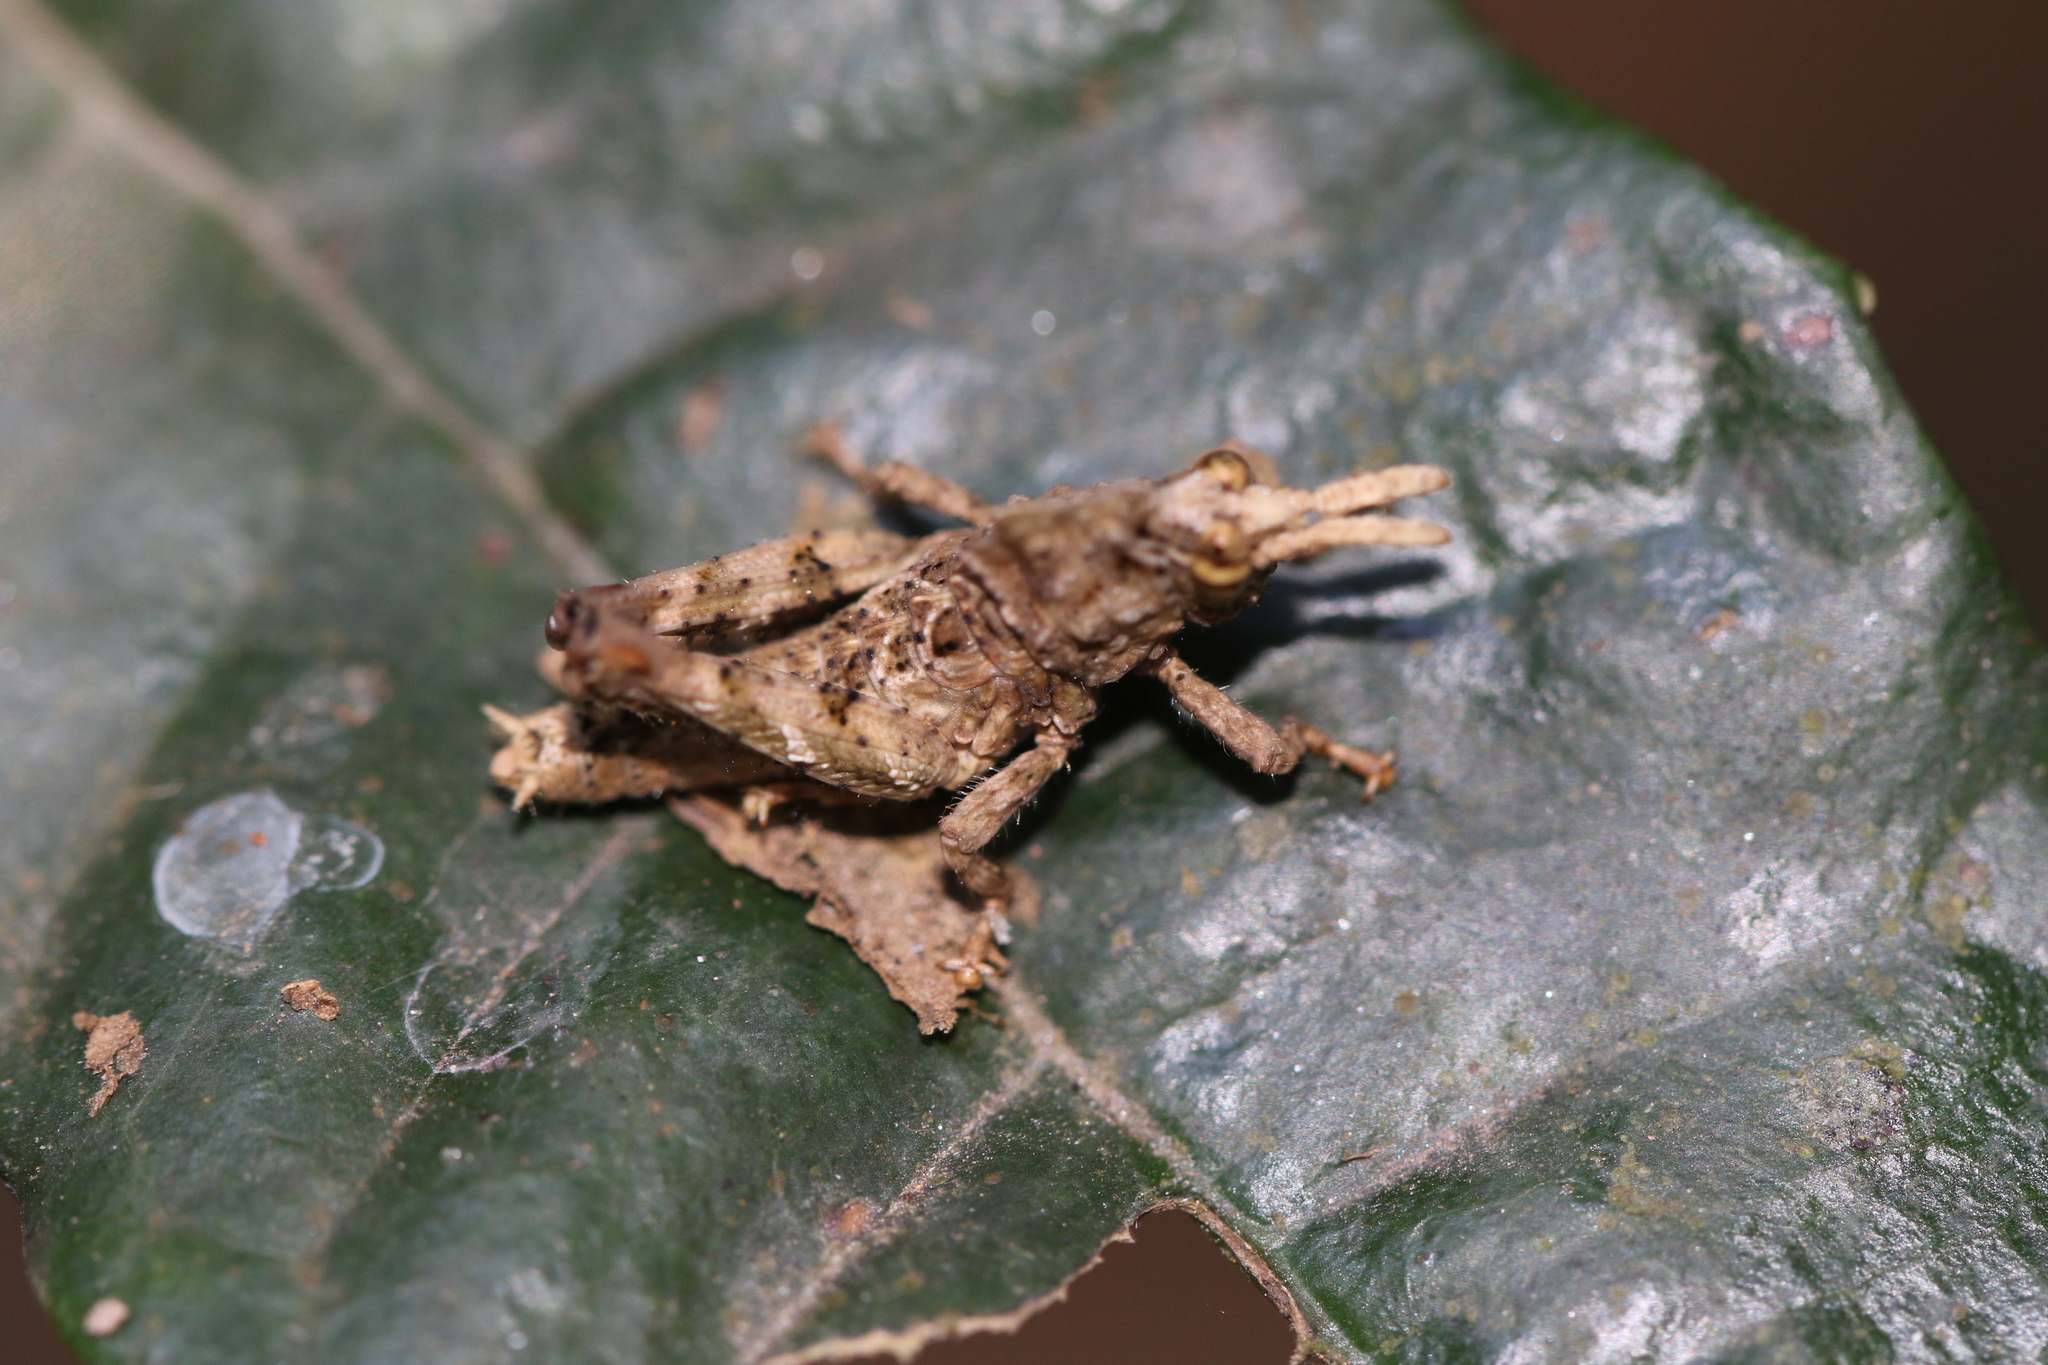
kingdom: Animalia
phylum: Arthropoda
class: Insecta
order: Orthoptera
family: Acrididae
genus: Pycnosarcus
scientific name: Pycnosarcus atavus
